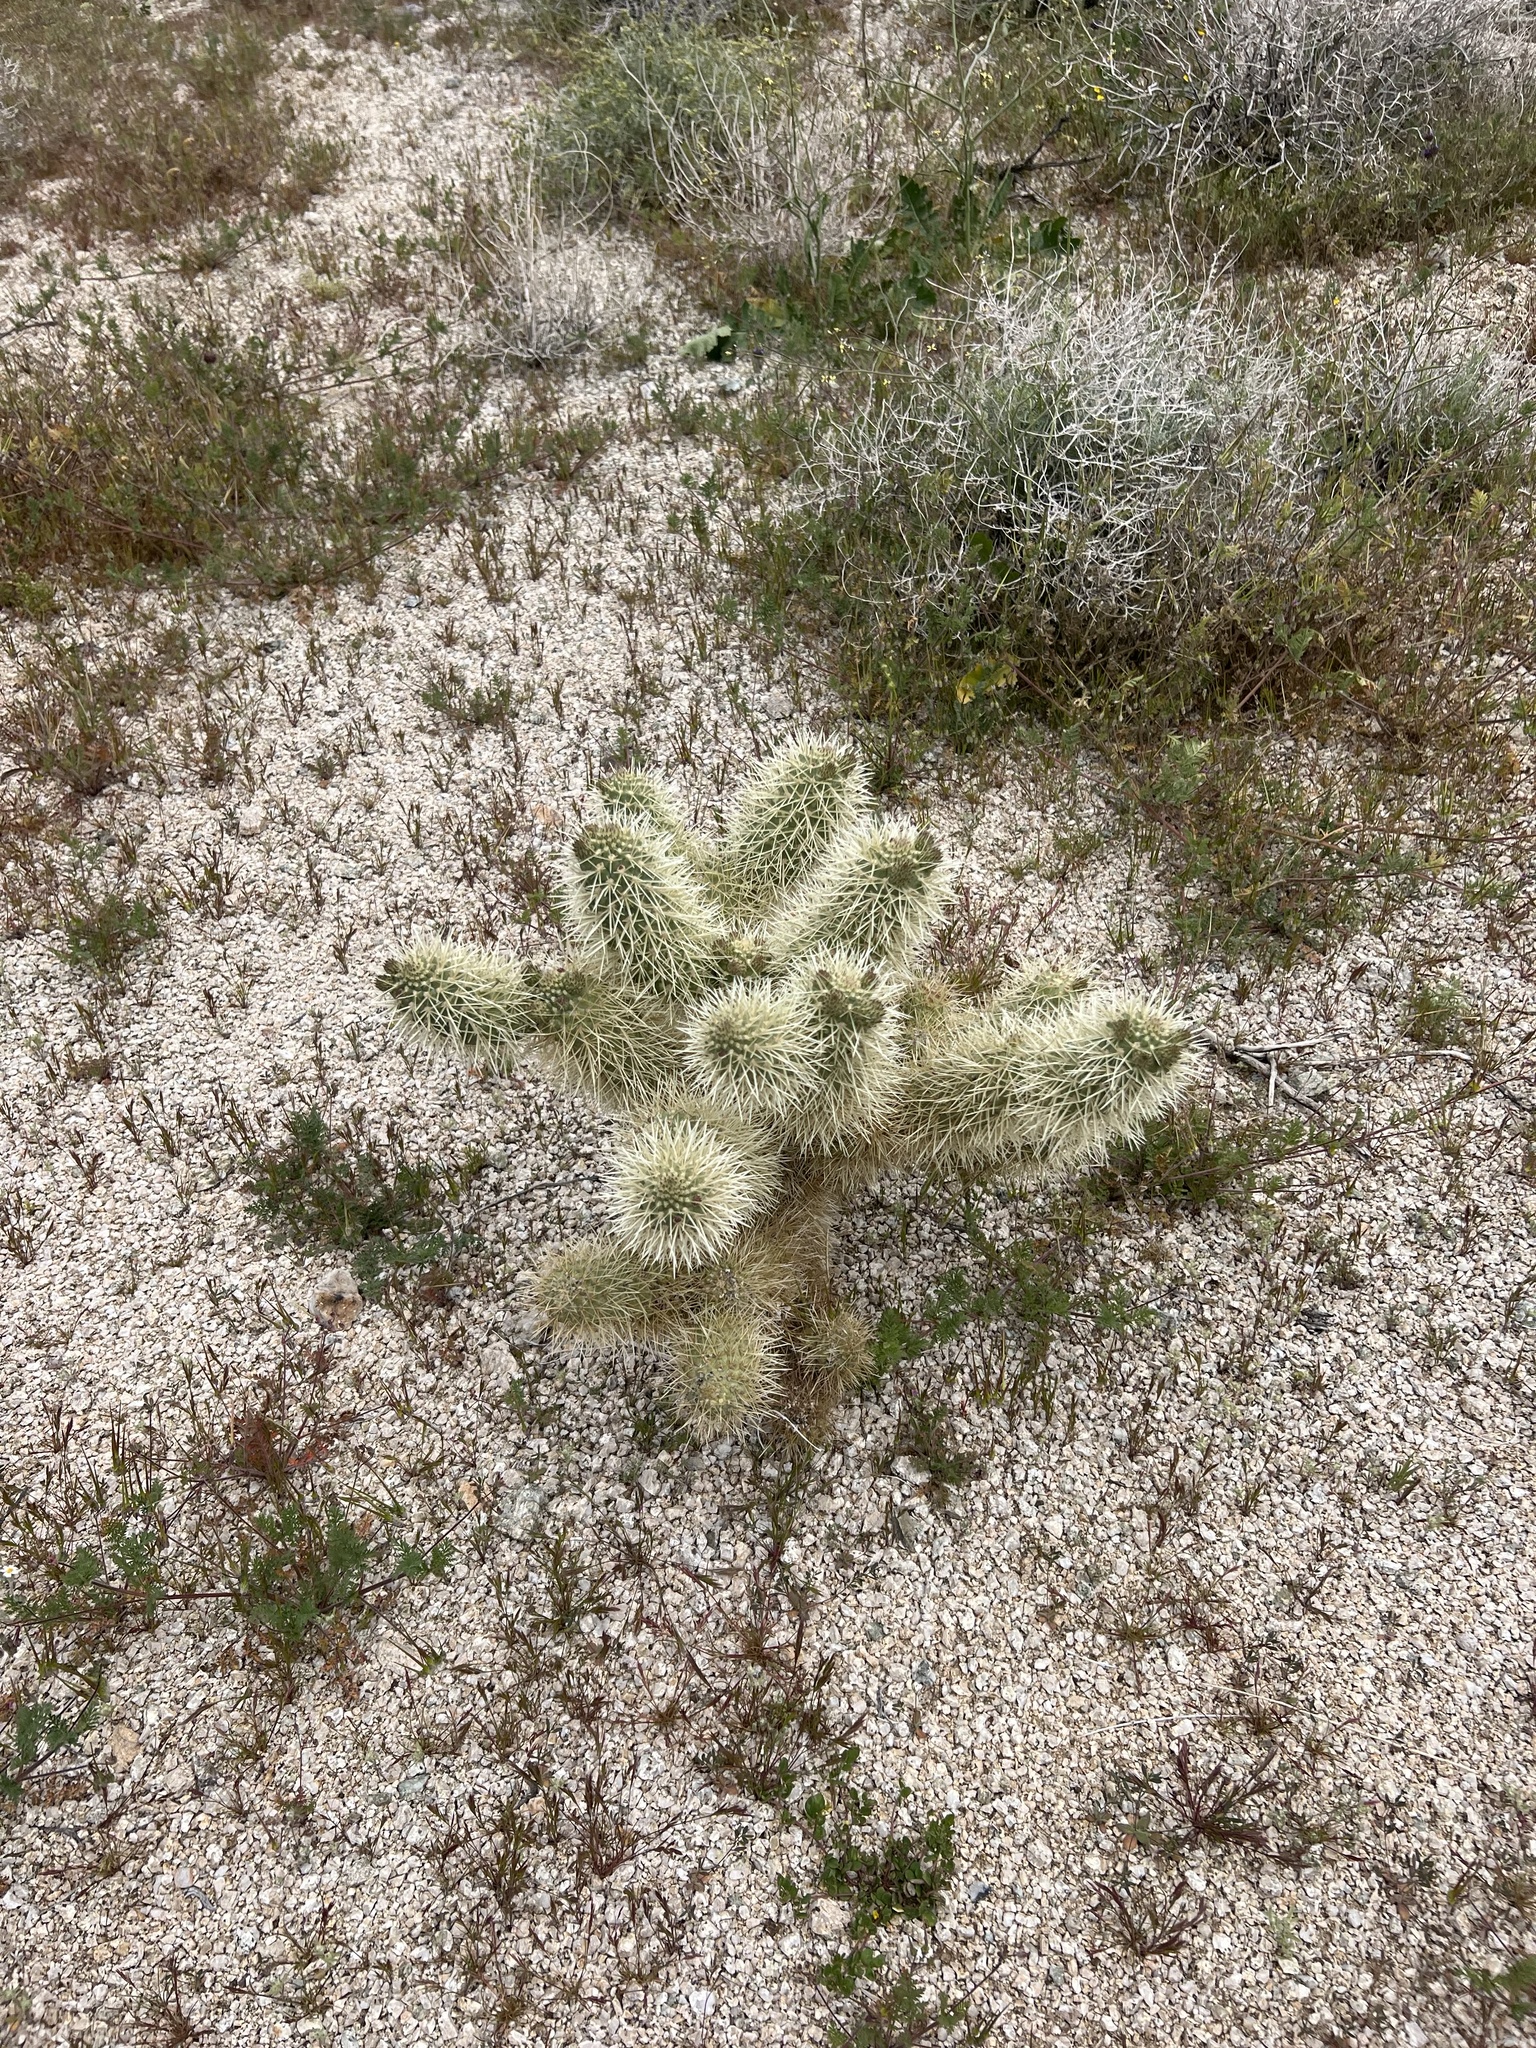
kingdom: Plantae
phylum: Tracheophyta
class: Magnoliopsida
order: Caryophyllales
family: Cactaceae
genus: Cylindropuntia
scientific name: Cylindropuntia fosbergii
